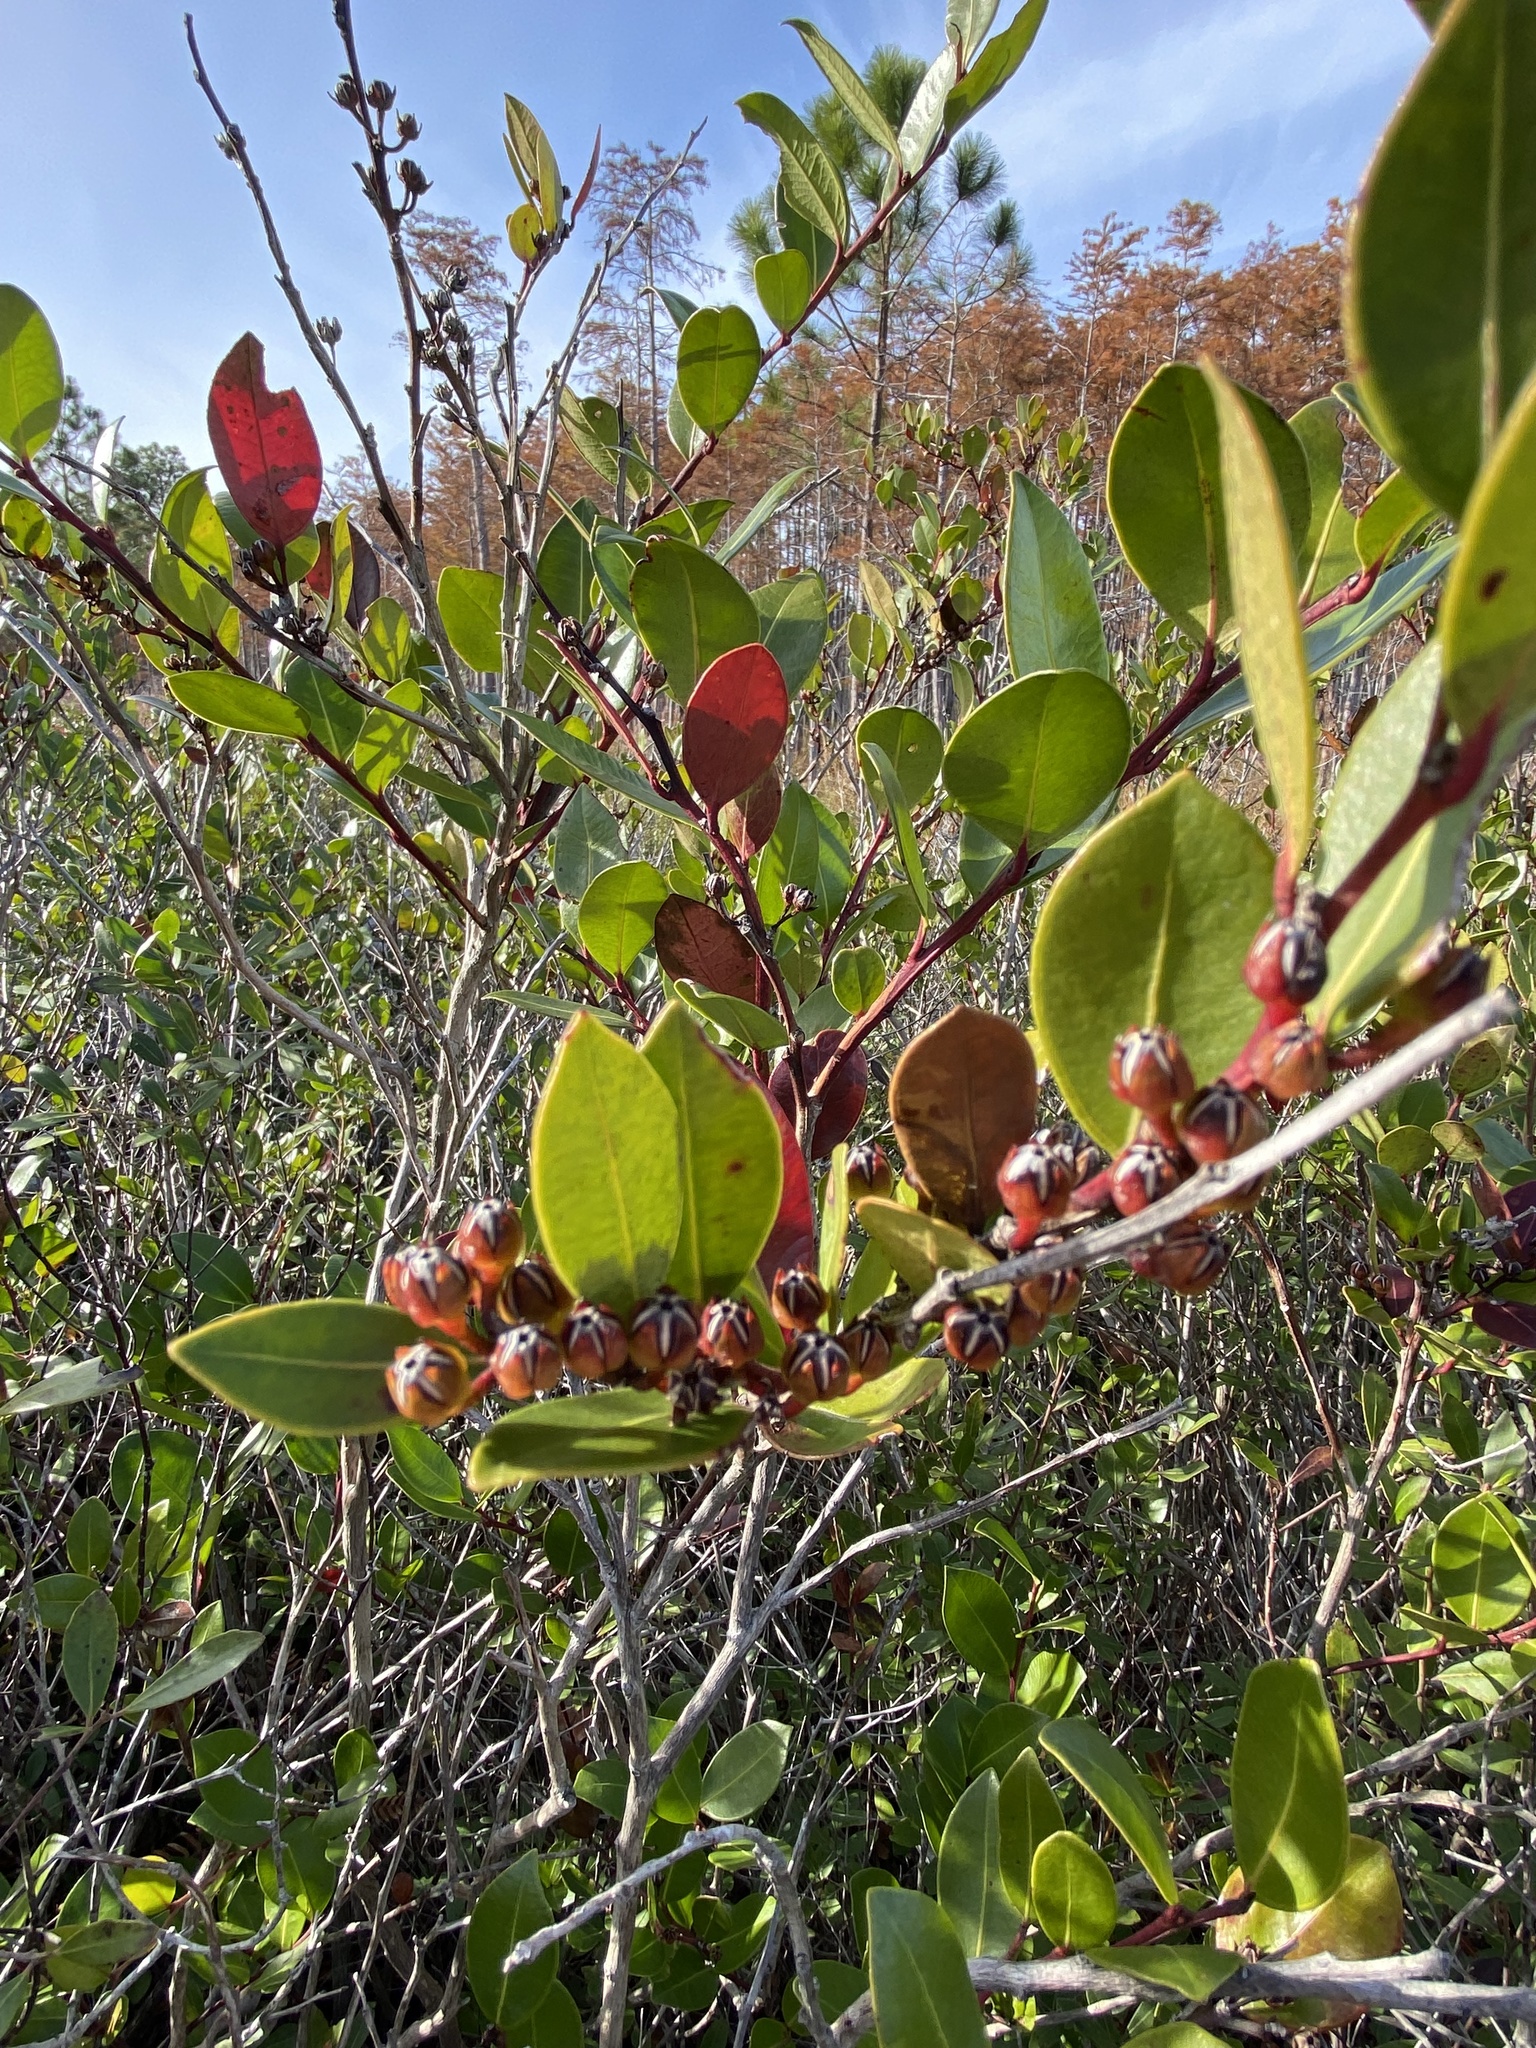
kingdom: Plantae
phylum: Tracheophyta
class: Magnoliopsida
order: Ericales
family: Ericaceae
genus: Lyonia
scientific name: Lyonia lucida
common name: Fetterbush
